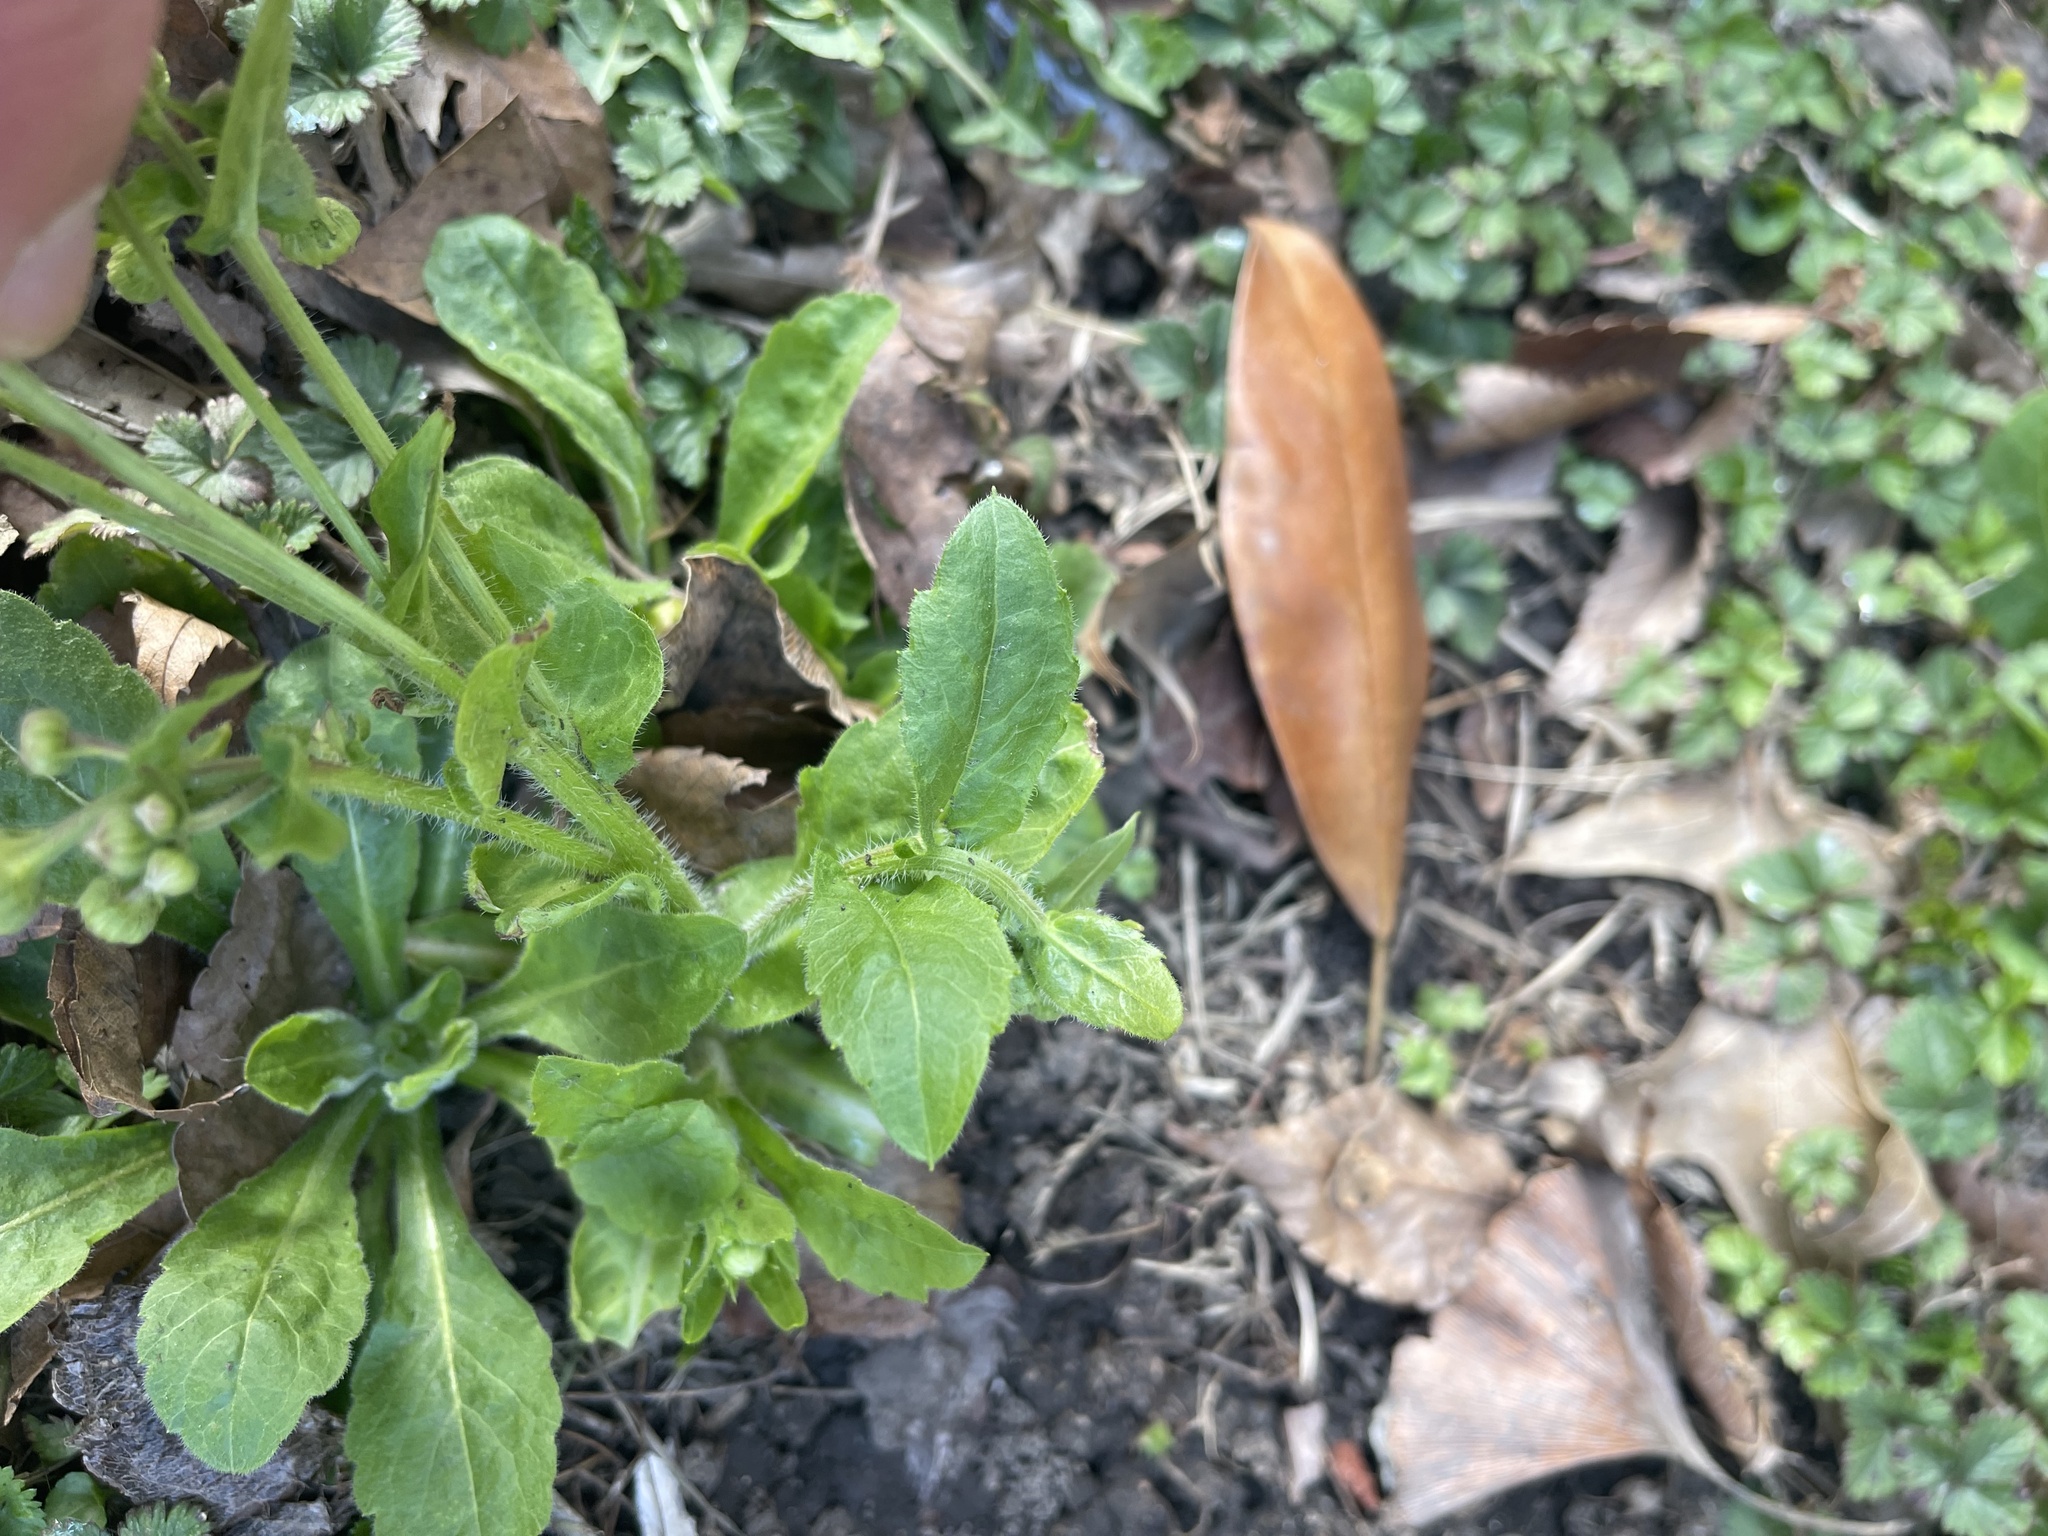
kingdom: Plantae
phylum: Tracheophyta
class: Magnoliopsida
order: Asterales
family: Asteraceae
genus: Erigeron
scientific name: Erigeron philadelphicus
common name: Robin's-plantain
